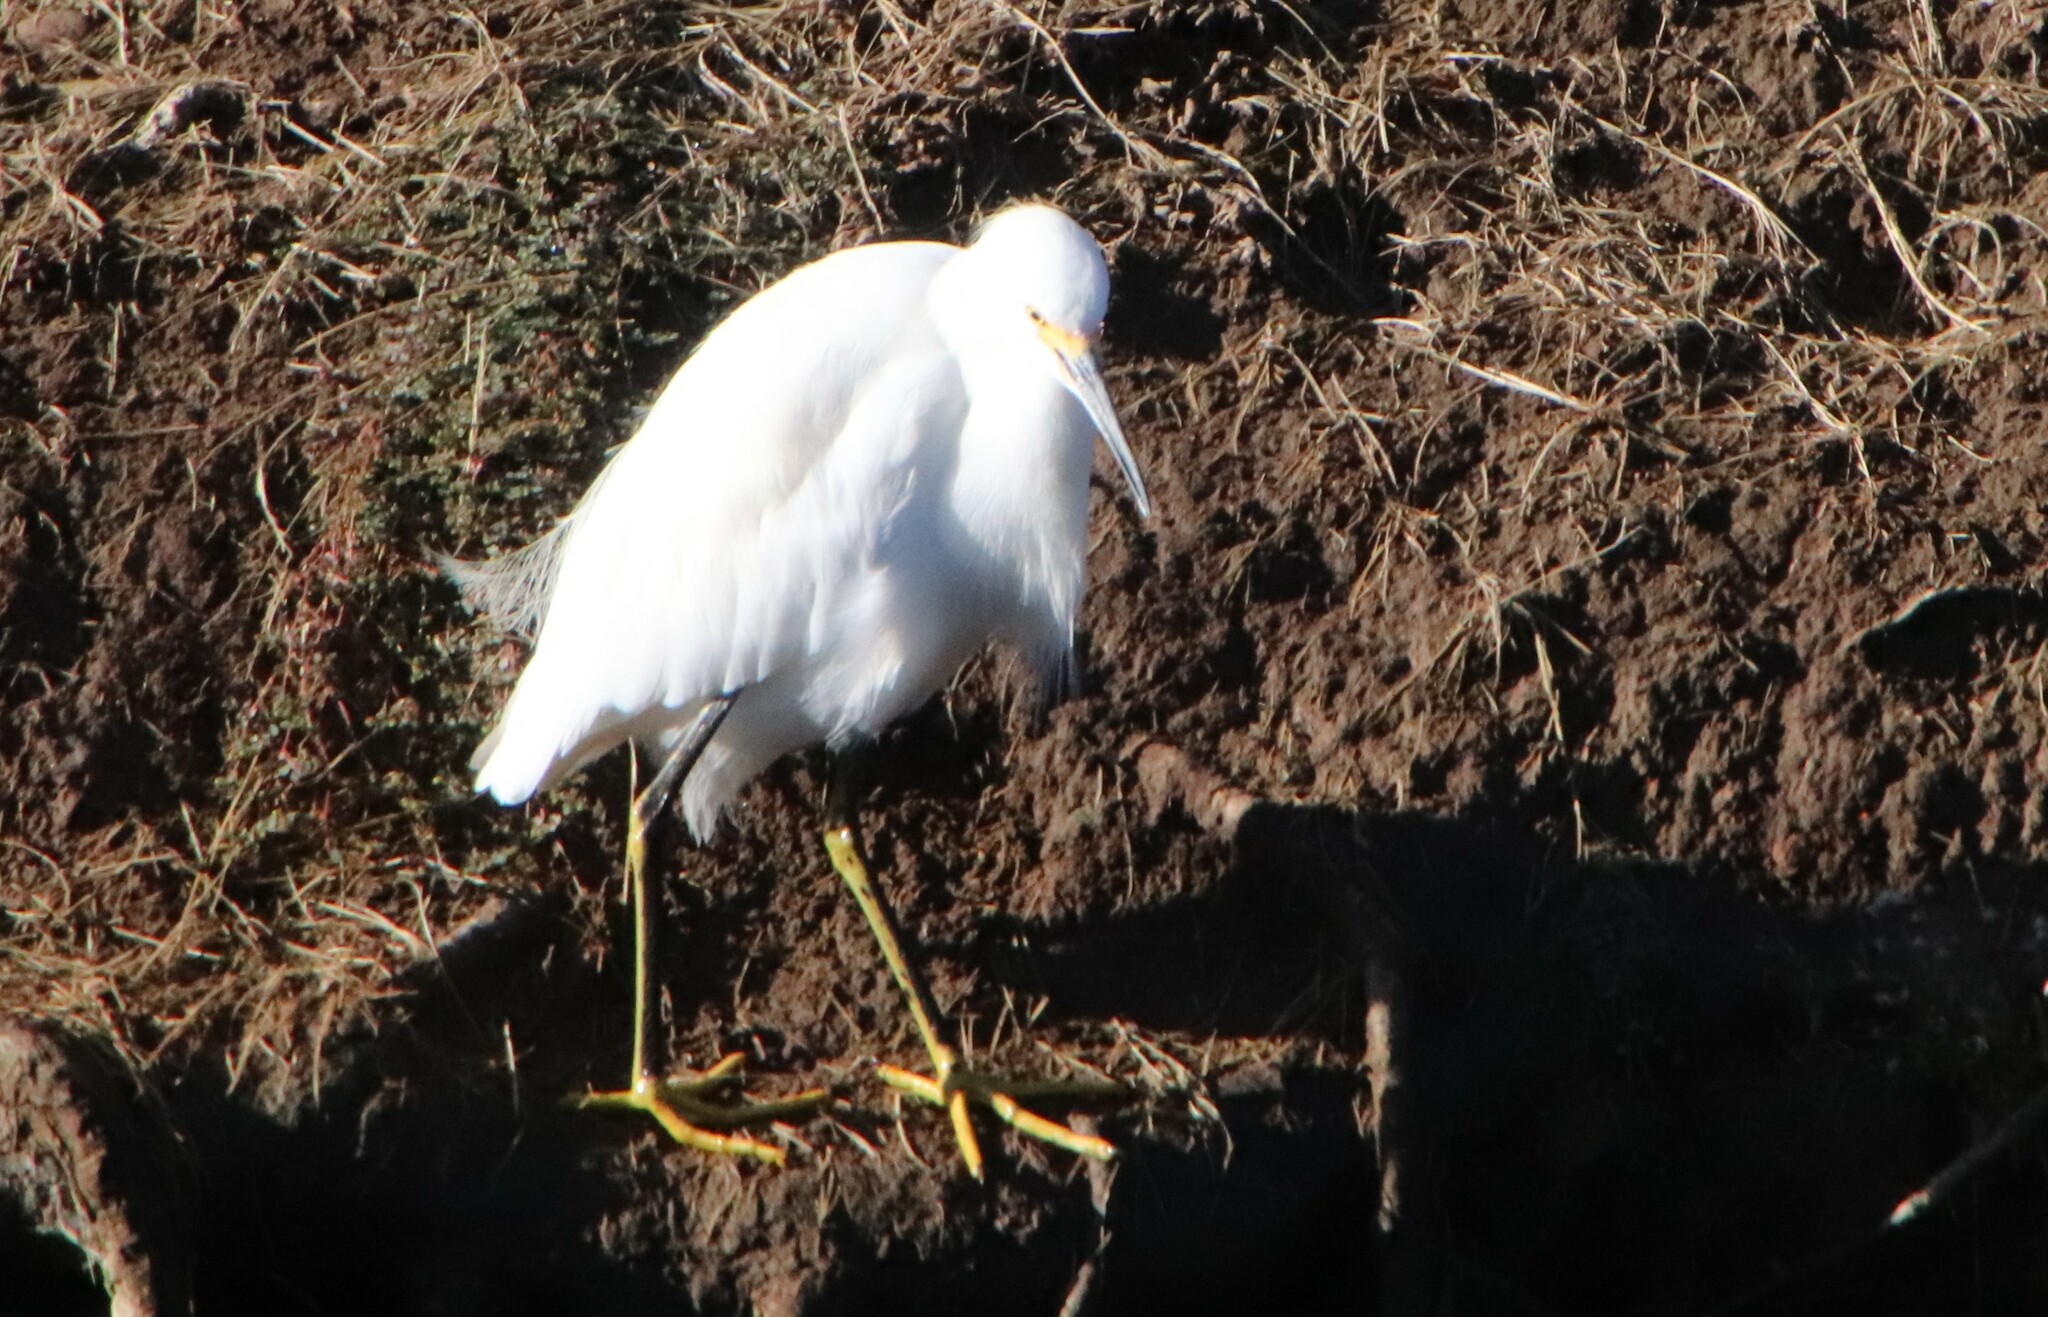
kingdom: Animalia
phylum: Chordata
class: Aves
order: Pelecaniformes
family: Ardeidae
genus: Egretta
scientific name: Egretta thula
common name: Snowy egret
